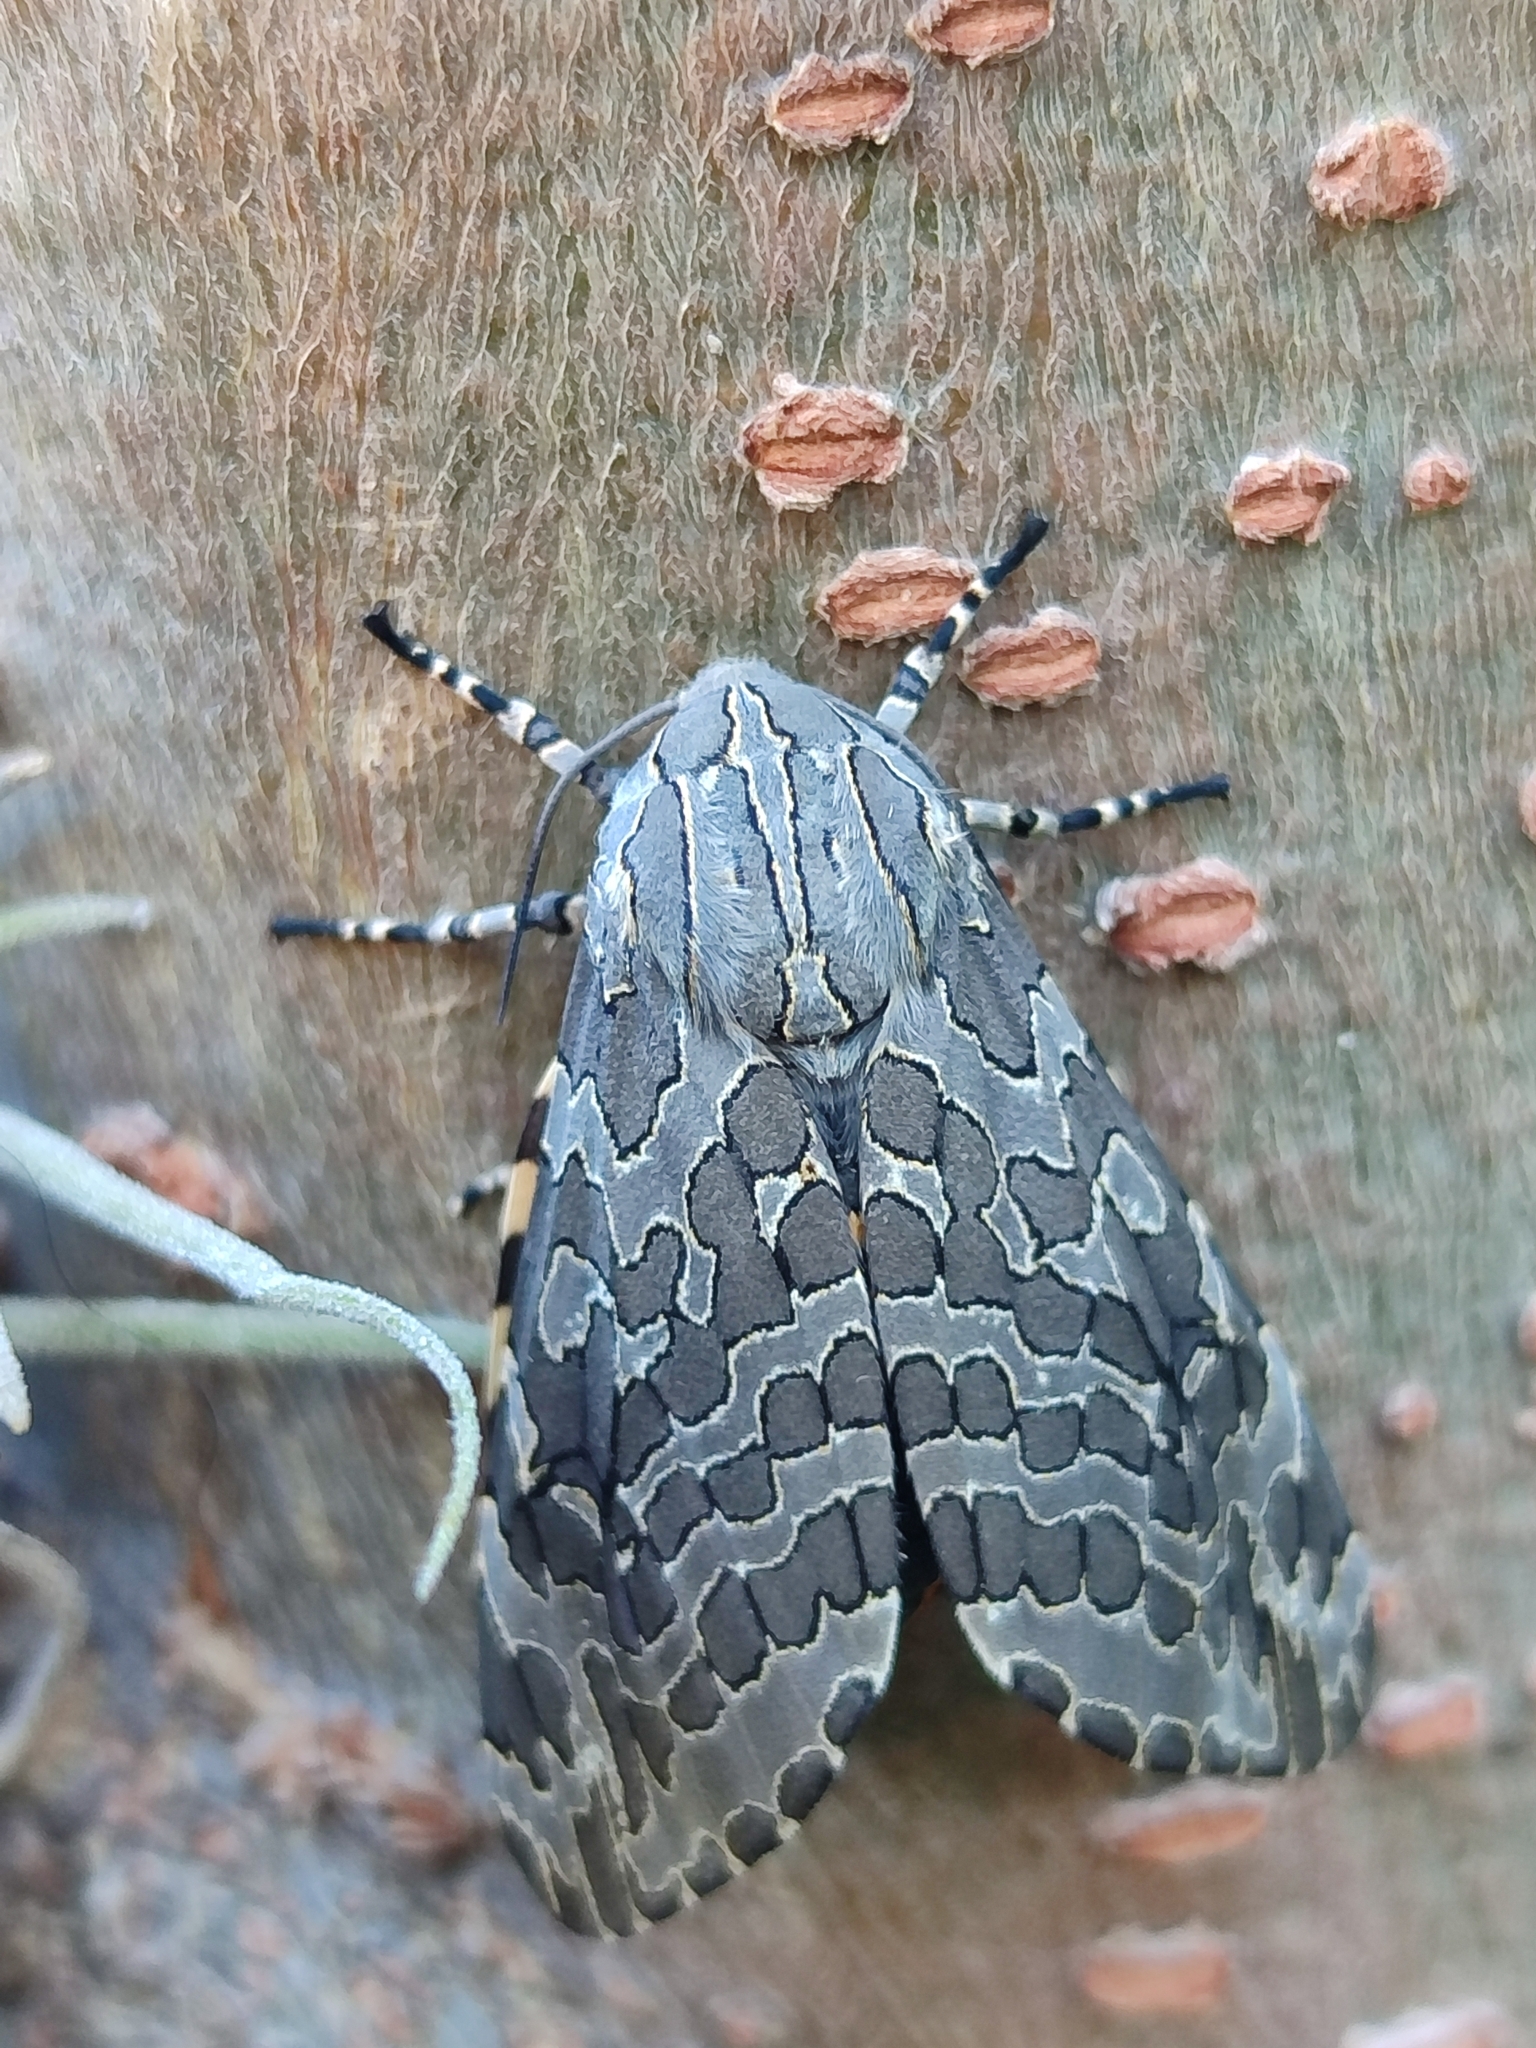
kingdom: Animalia
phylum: Arthropoda
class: Insecta
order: Lepidoptera
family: Erebidae
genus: Hypercompe
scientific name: Hypercompe indecisa
